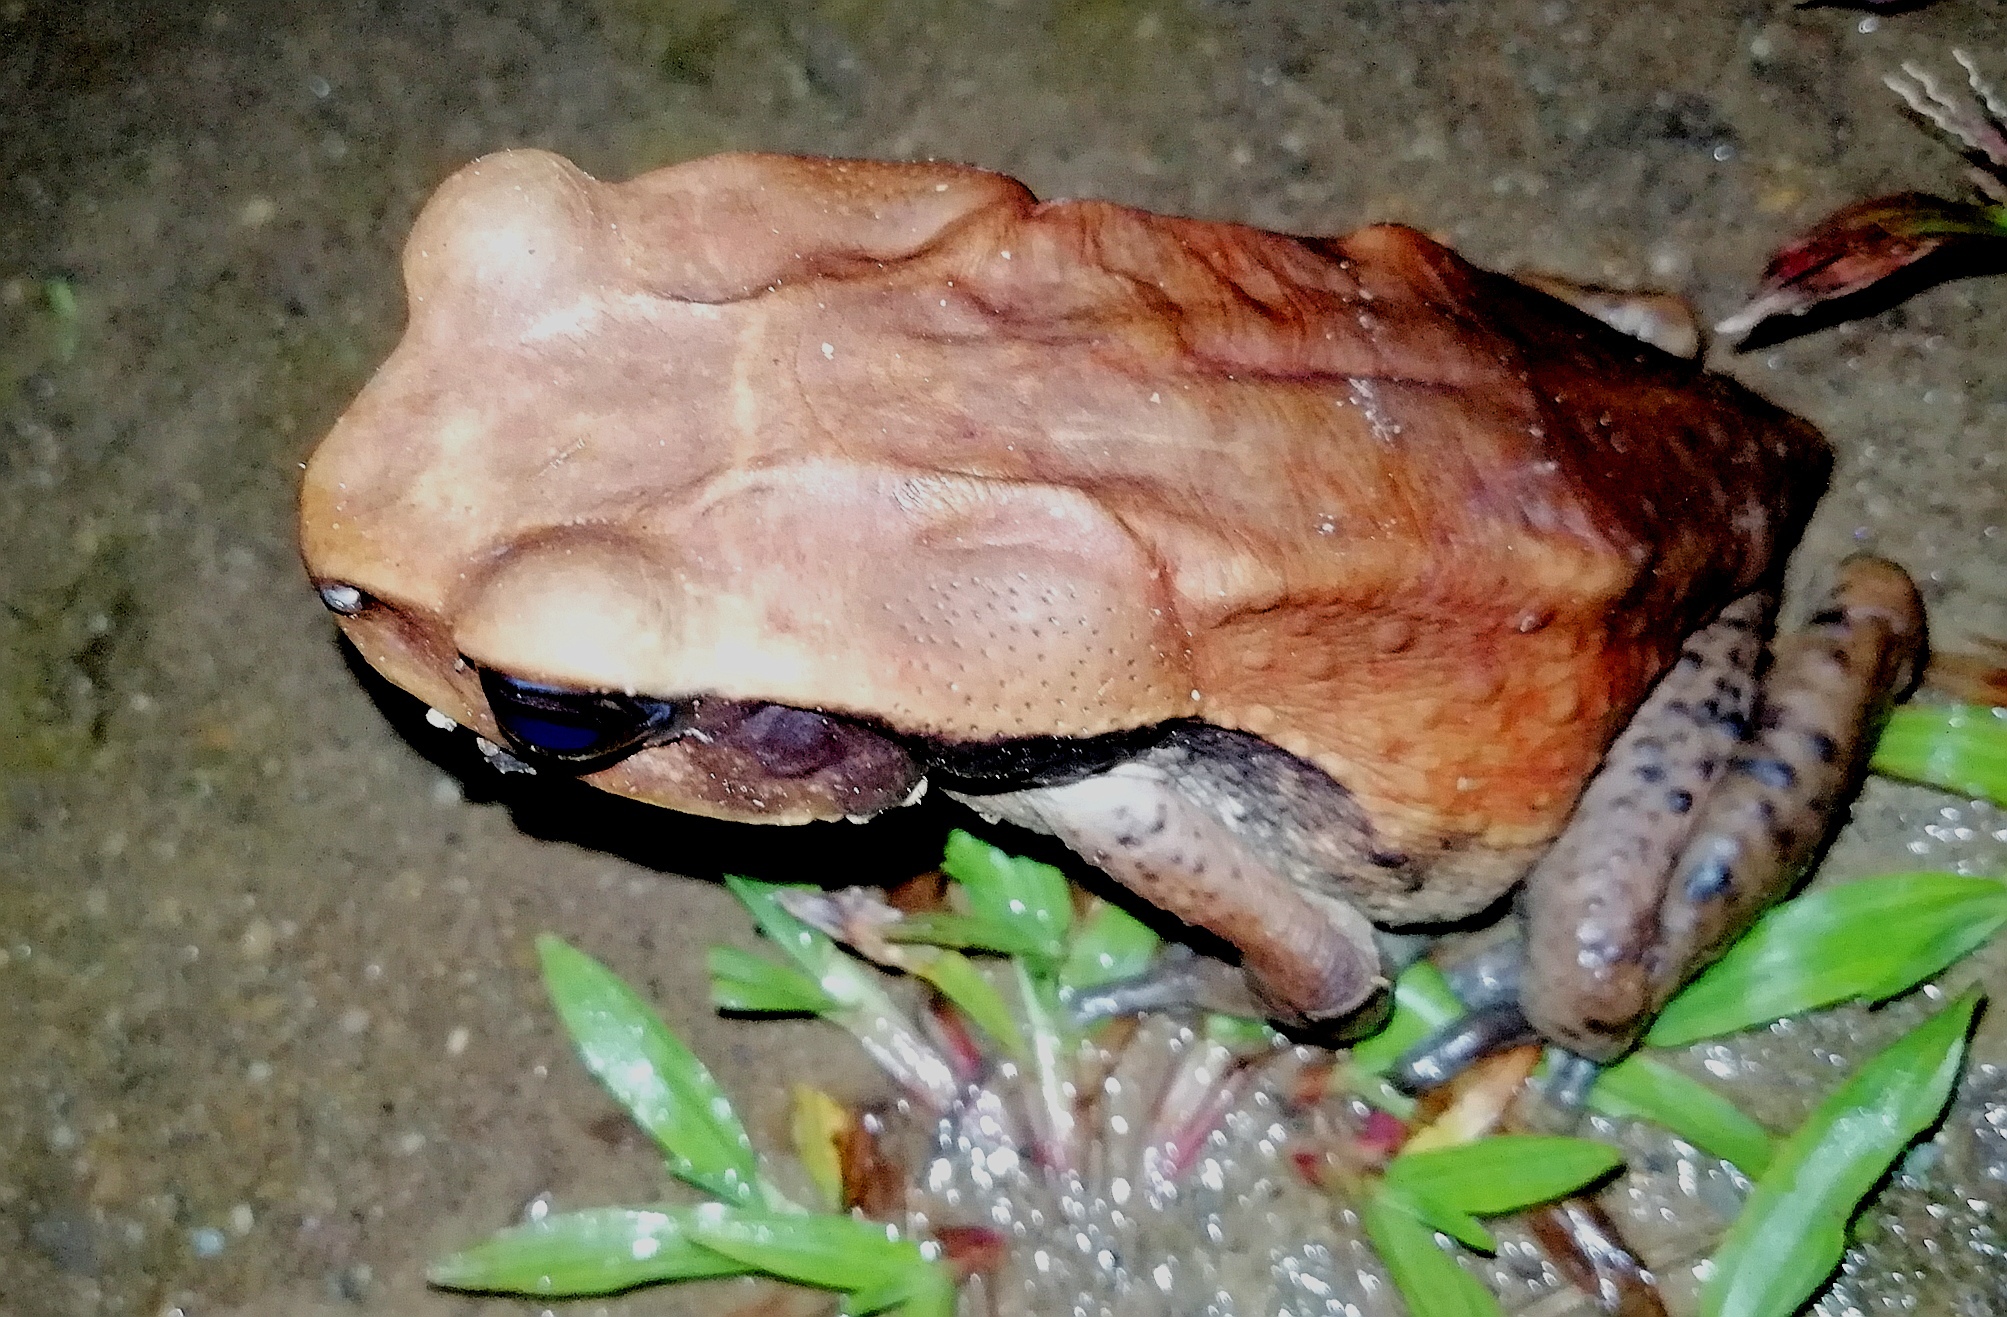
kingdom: Animalia
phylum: Chordata
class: Amphibia
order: Anura
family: Bufonidae
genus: Rhaebo
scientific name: Rhaebo ecuadorensis
